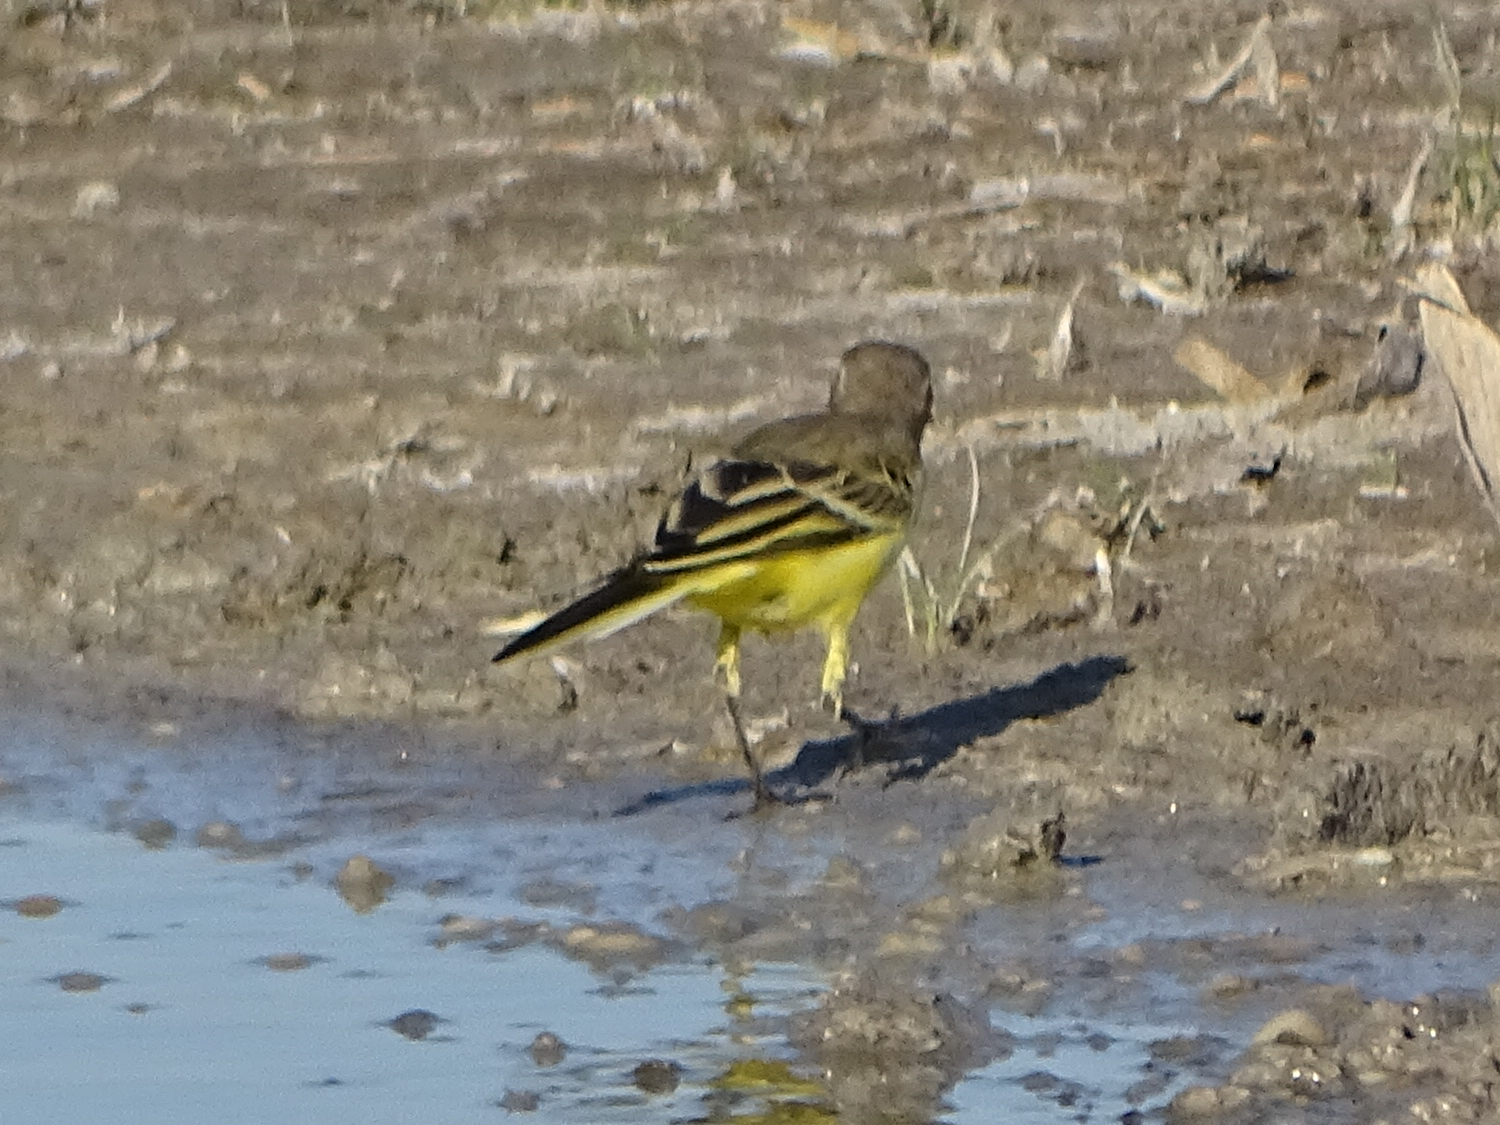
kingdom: Animalia
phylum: Chordata
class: Aves
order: Passeriformes
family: Motacillidae
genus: Motacilla
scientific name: Motacilla flava
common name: Western yellow wagtail
